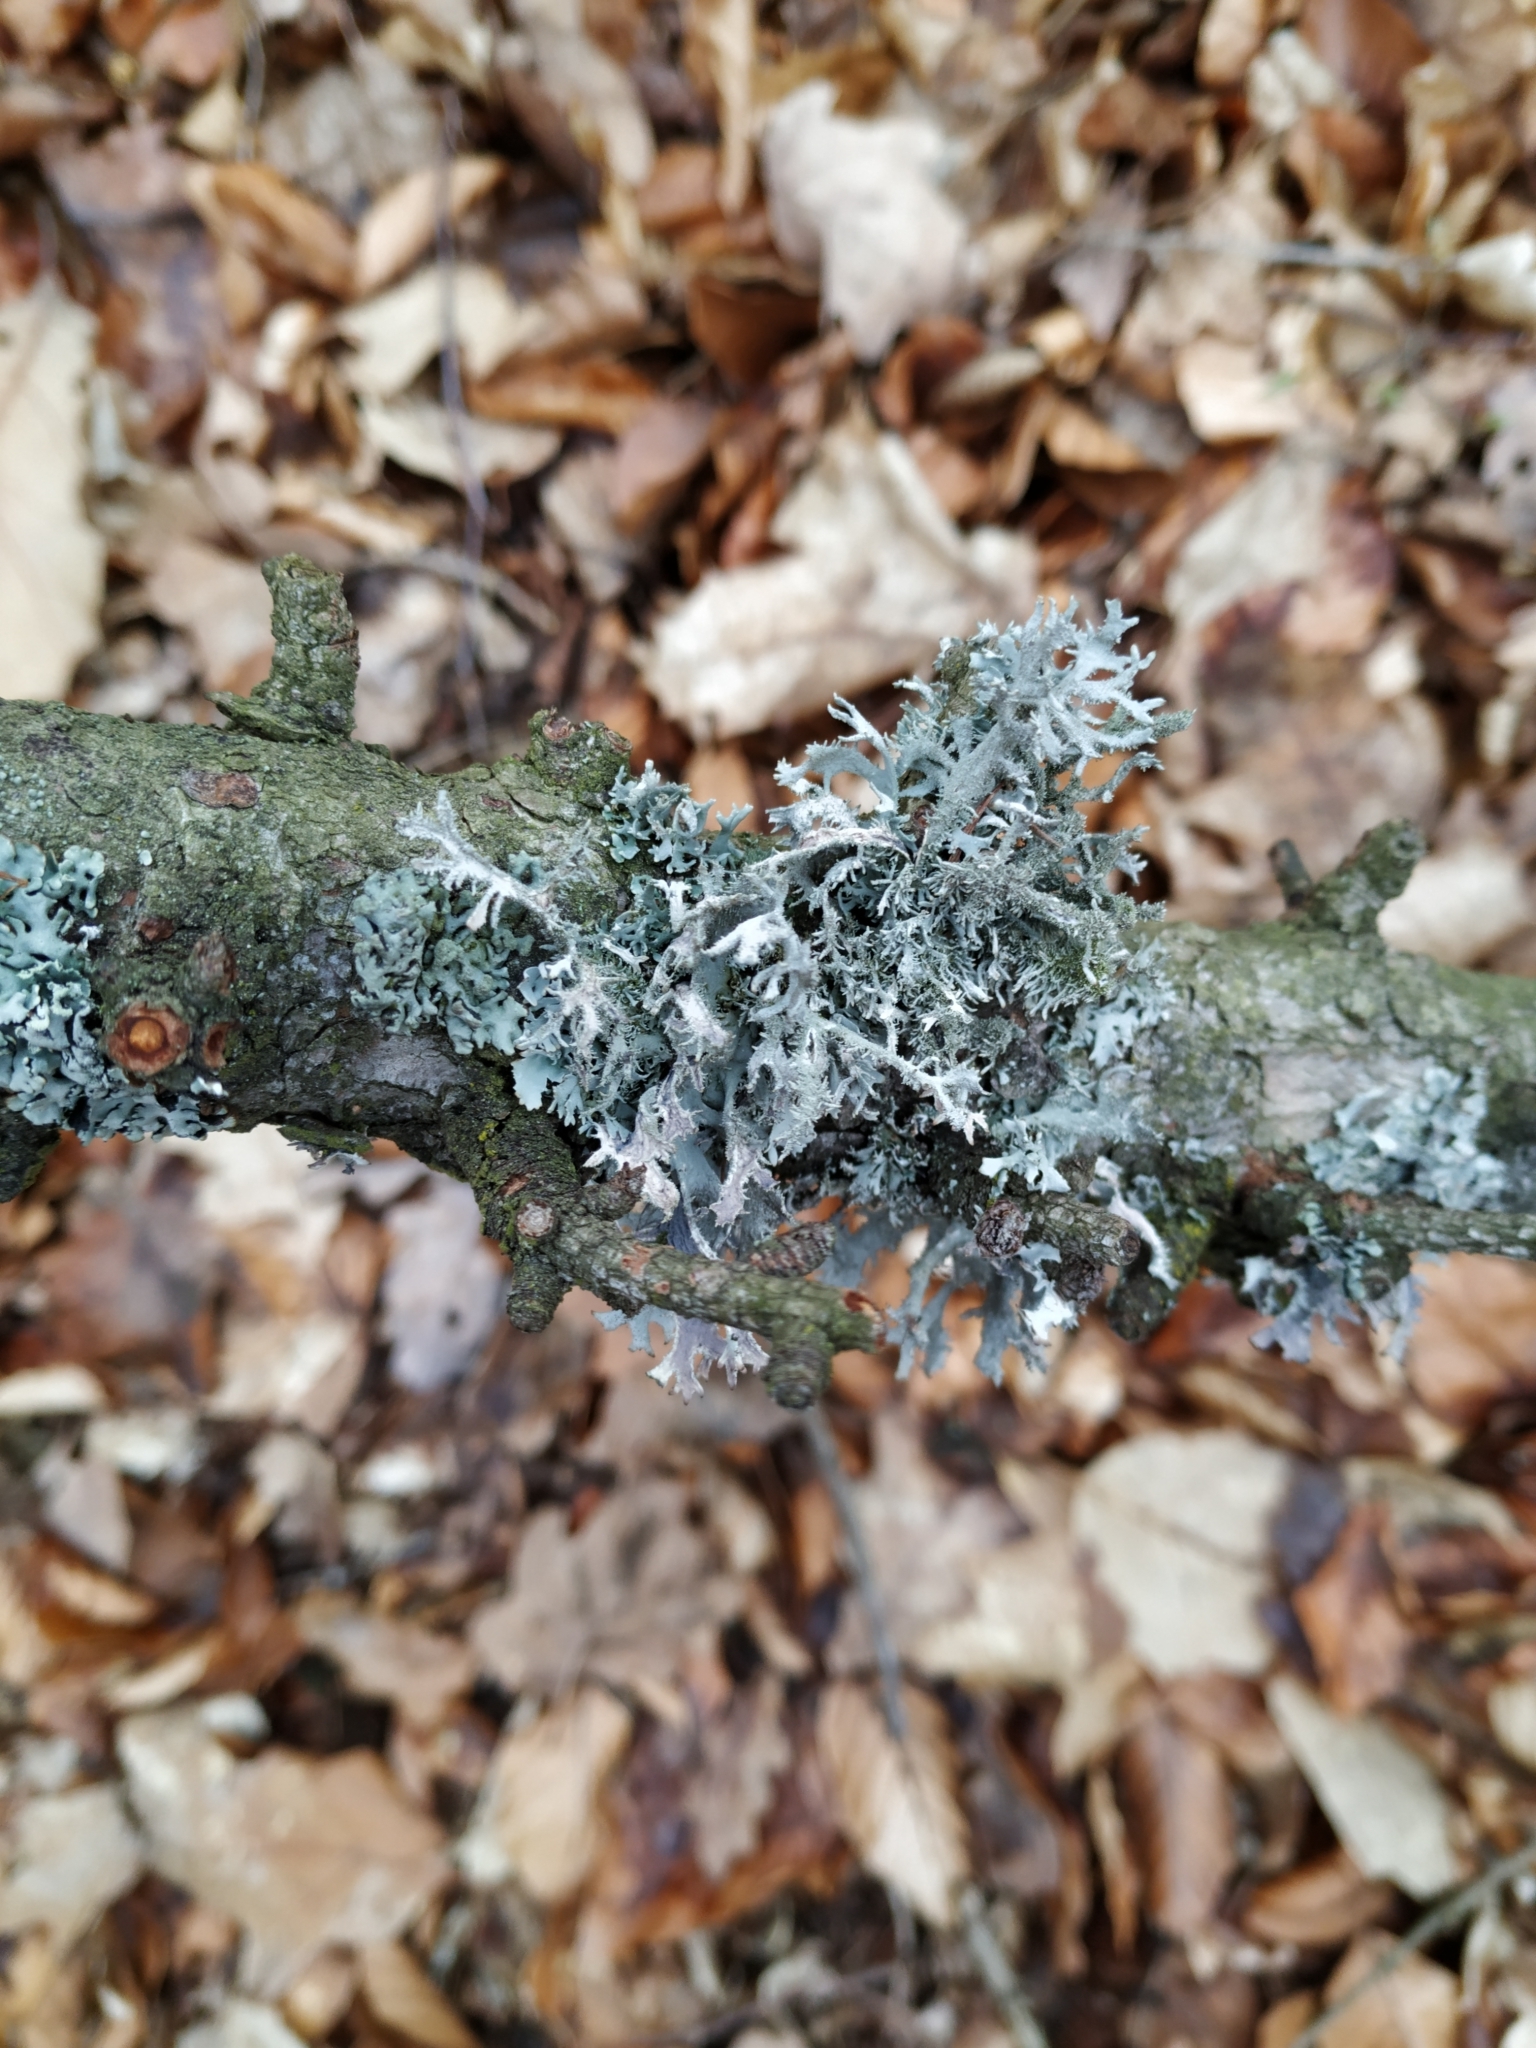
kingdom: Fungi
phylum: Ascomycota
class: Lecanoromycetes
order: Lecanorales
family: Parmeliaceae
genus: Pseudevernia
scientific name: Pseudevernia furfuracea
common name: Tree moss
